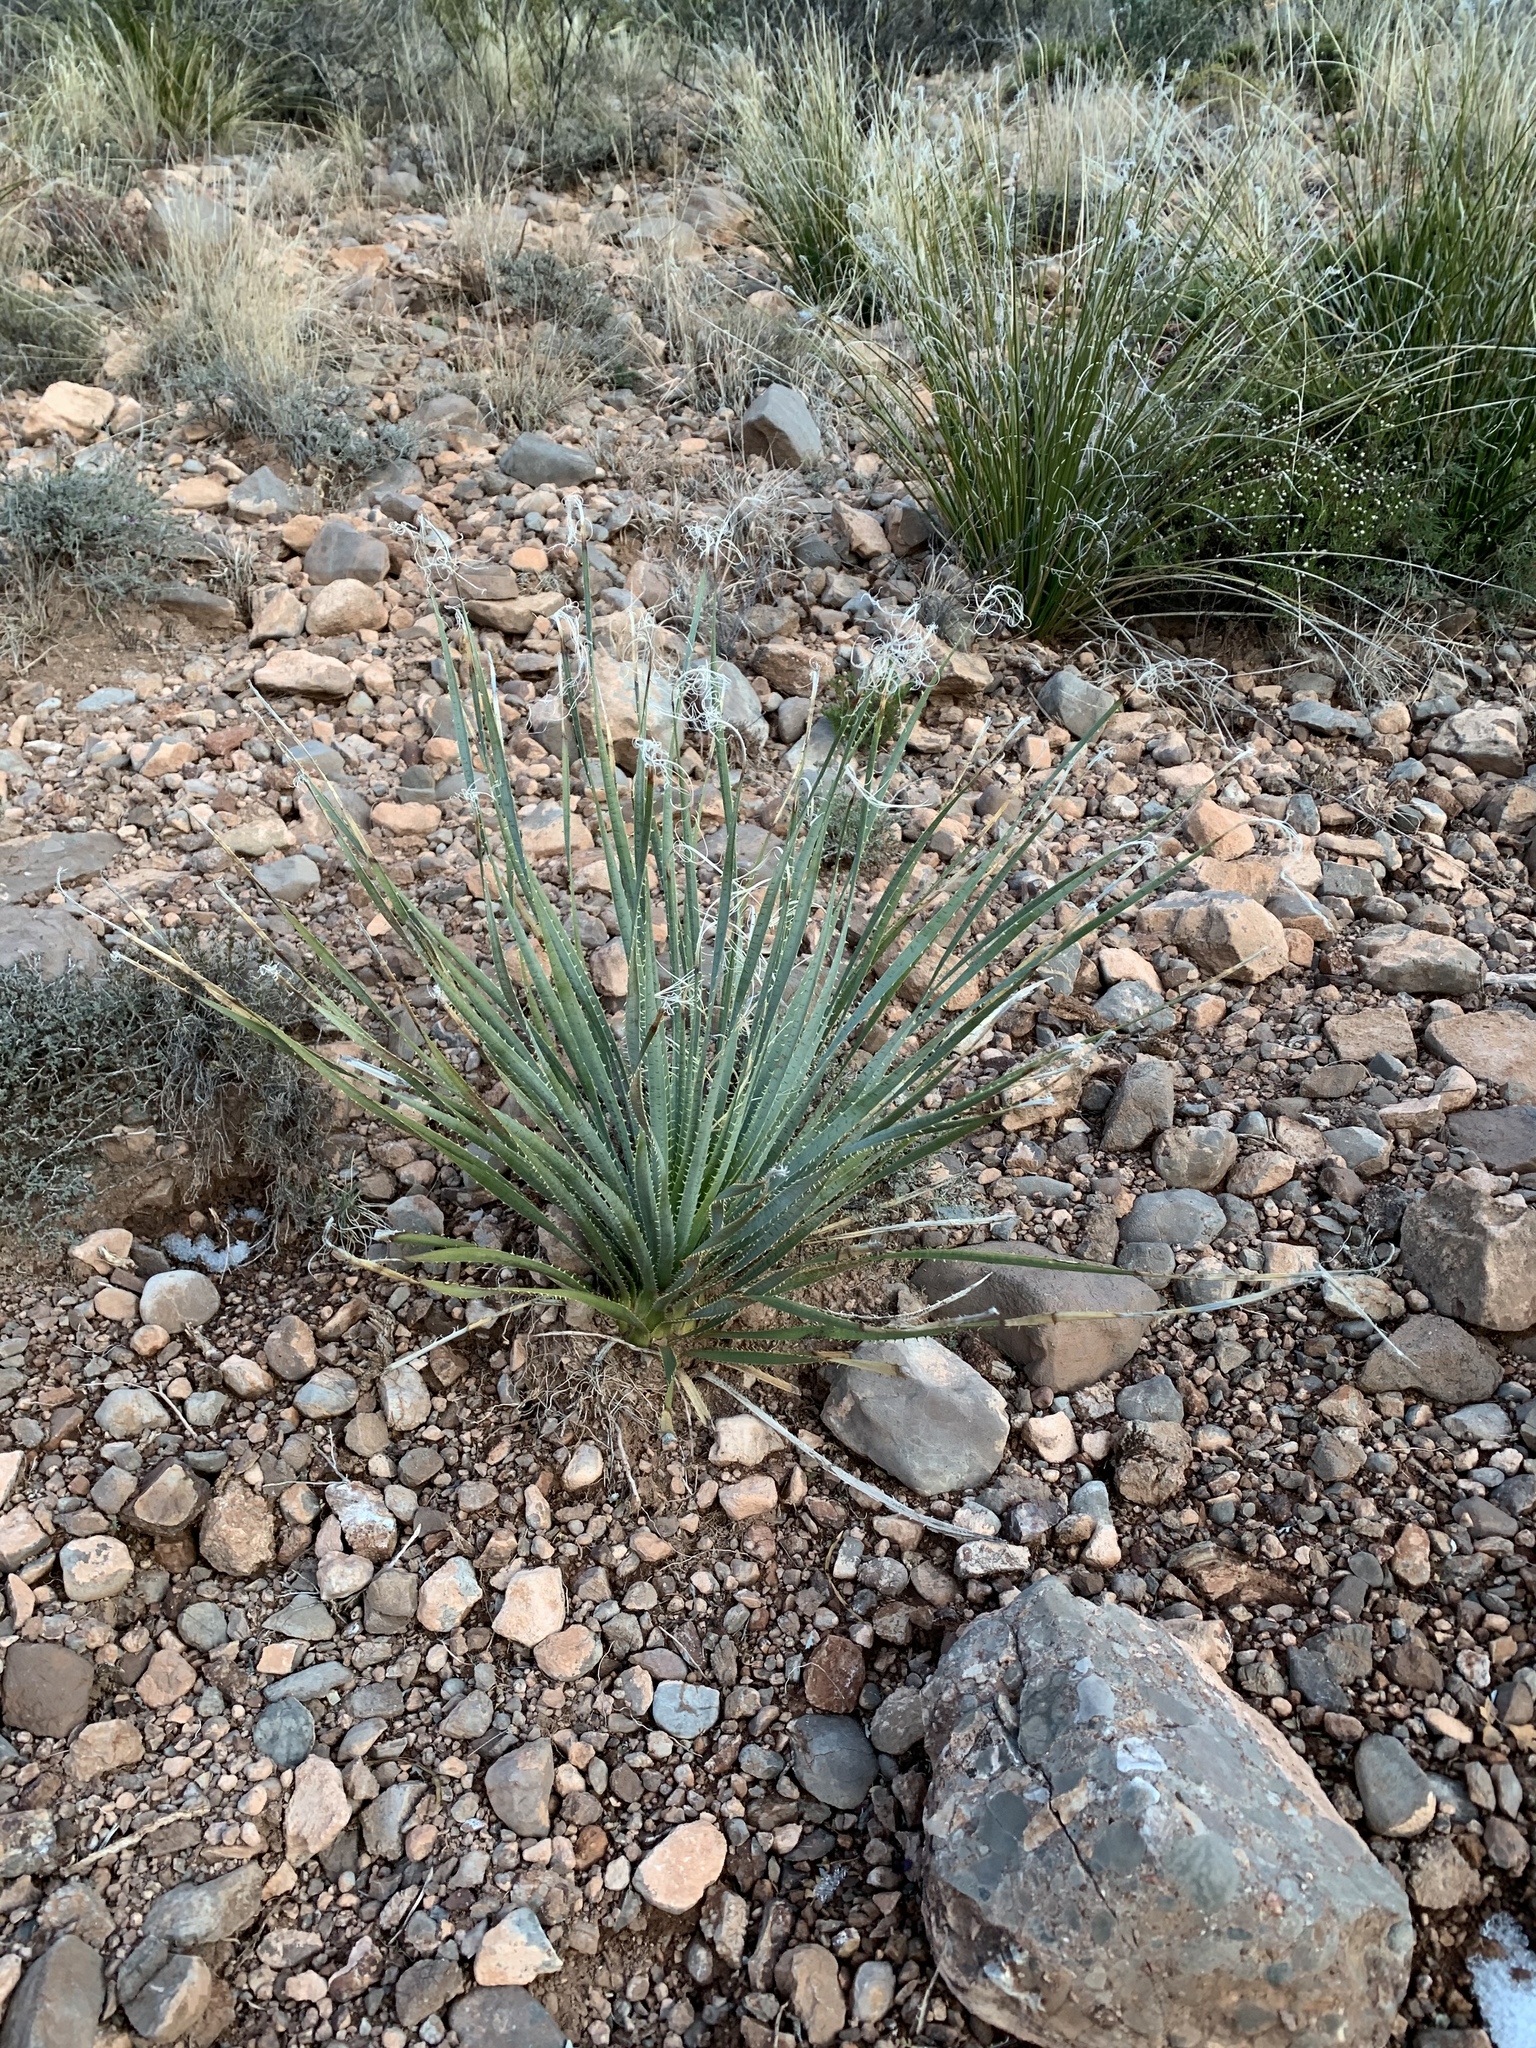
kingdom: Plantae
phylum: Tracheophyta
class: Liliopsida
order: Asparagales
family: Asparagaceae
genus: Dasylirion
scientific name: Dasylirion wheeleri
